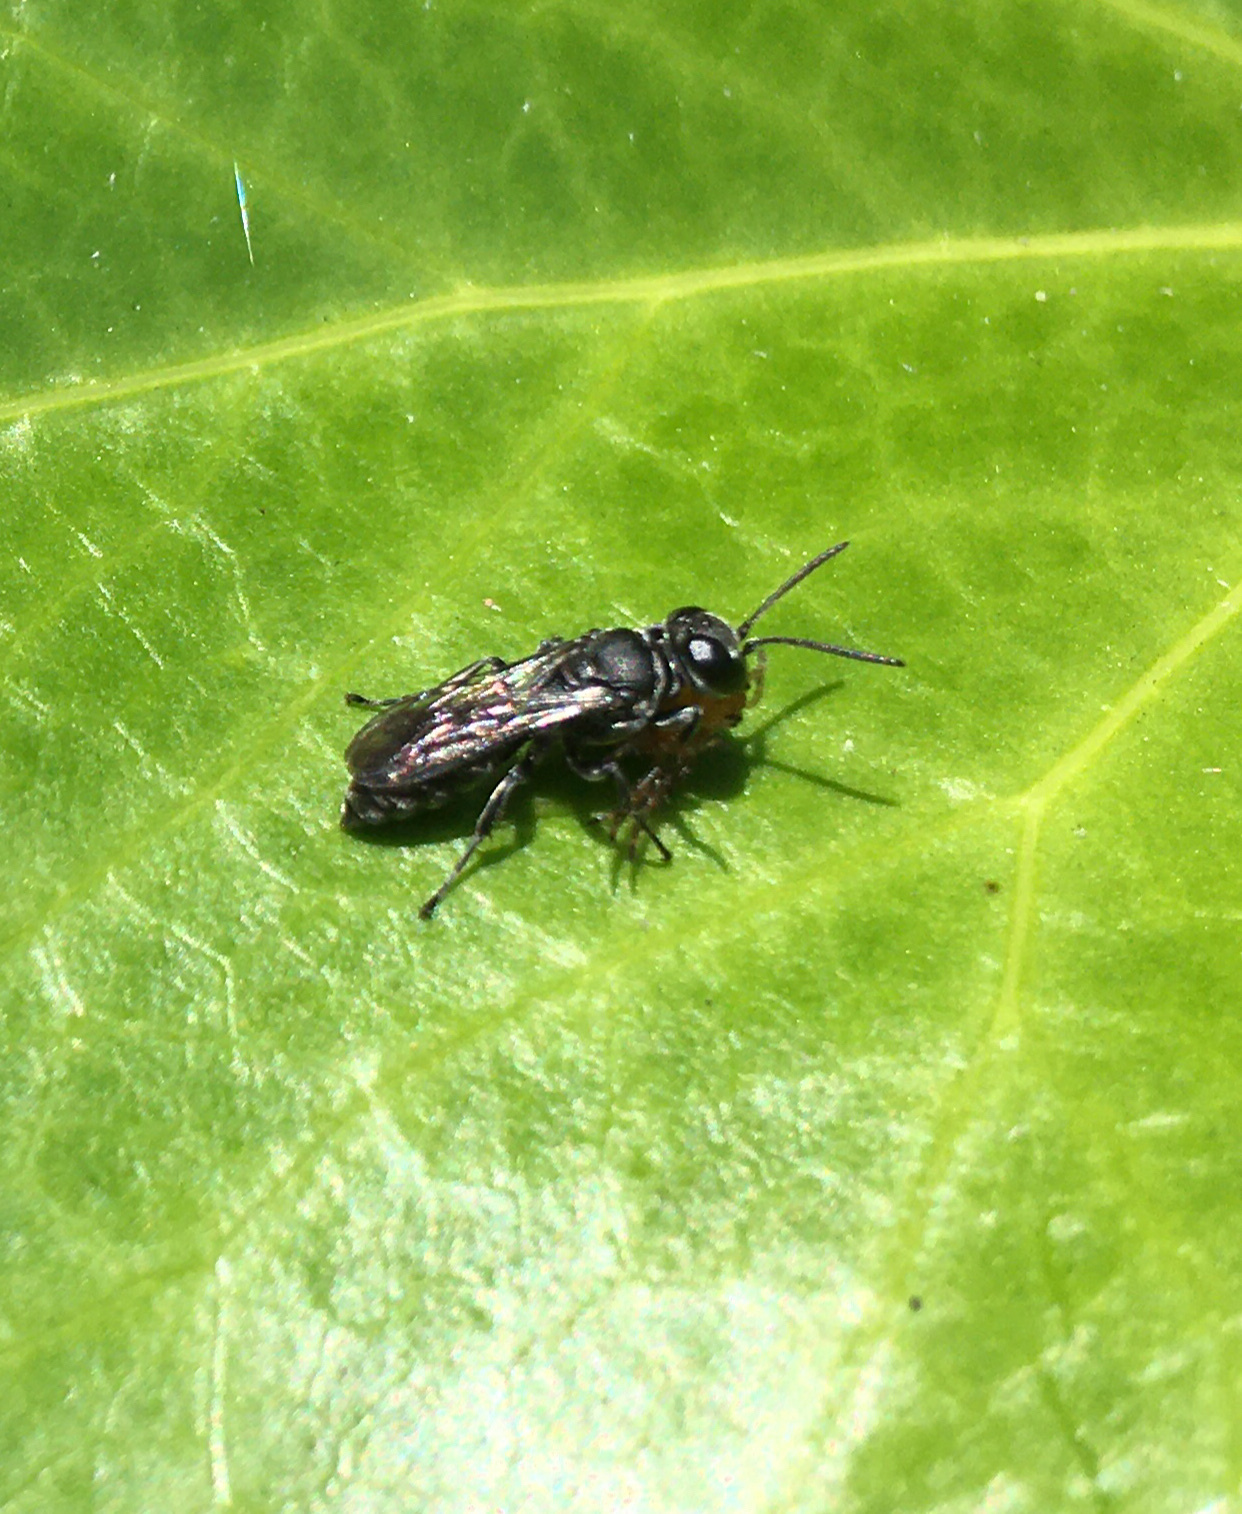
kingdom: Animalia
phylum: Arthropoda
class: Insecta
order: Hymenoptera
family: Crabronidae
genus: Pison
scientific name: Pison
